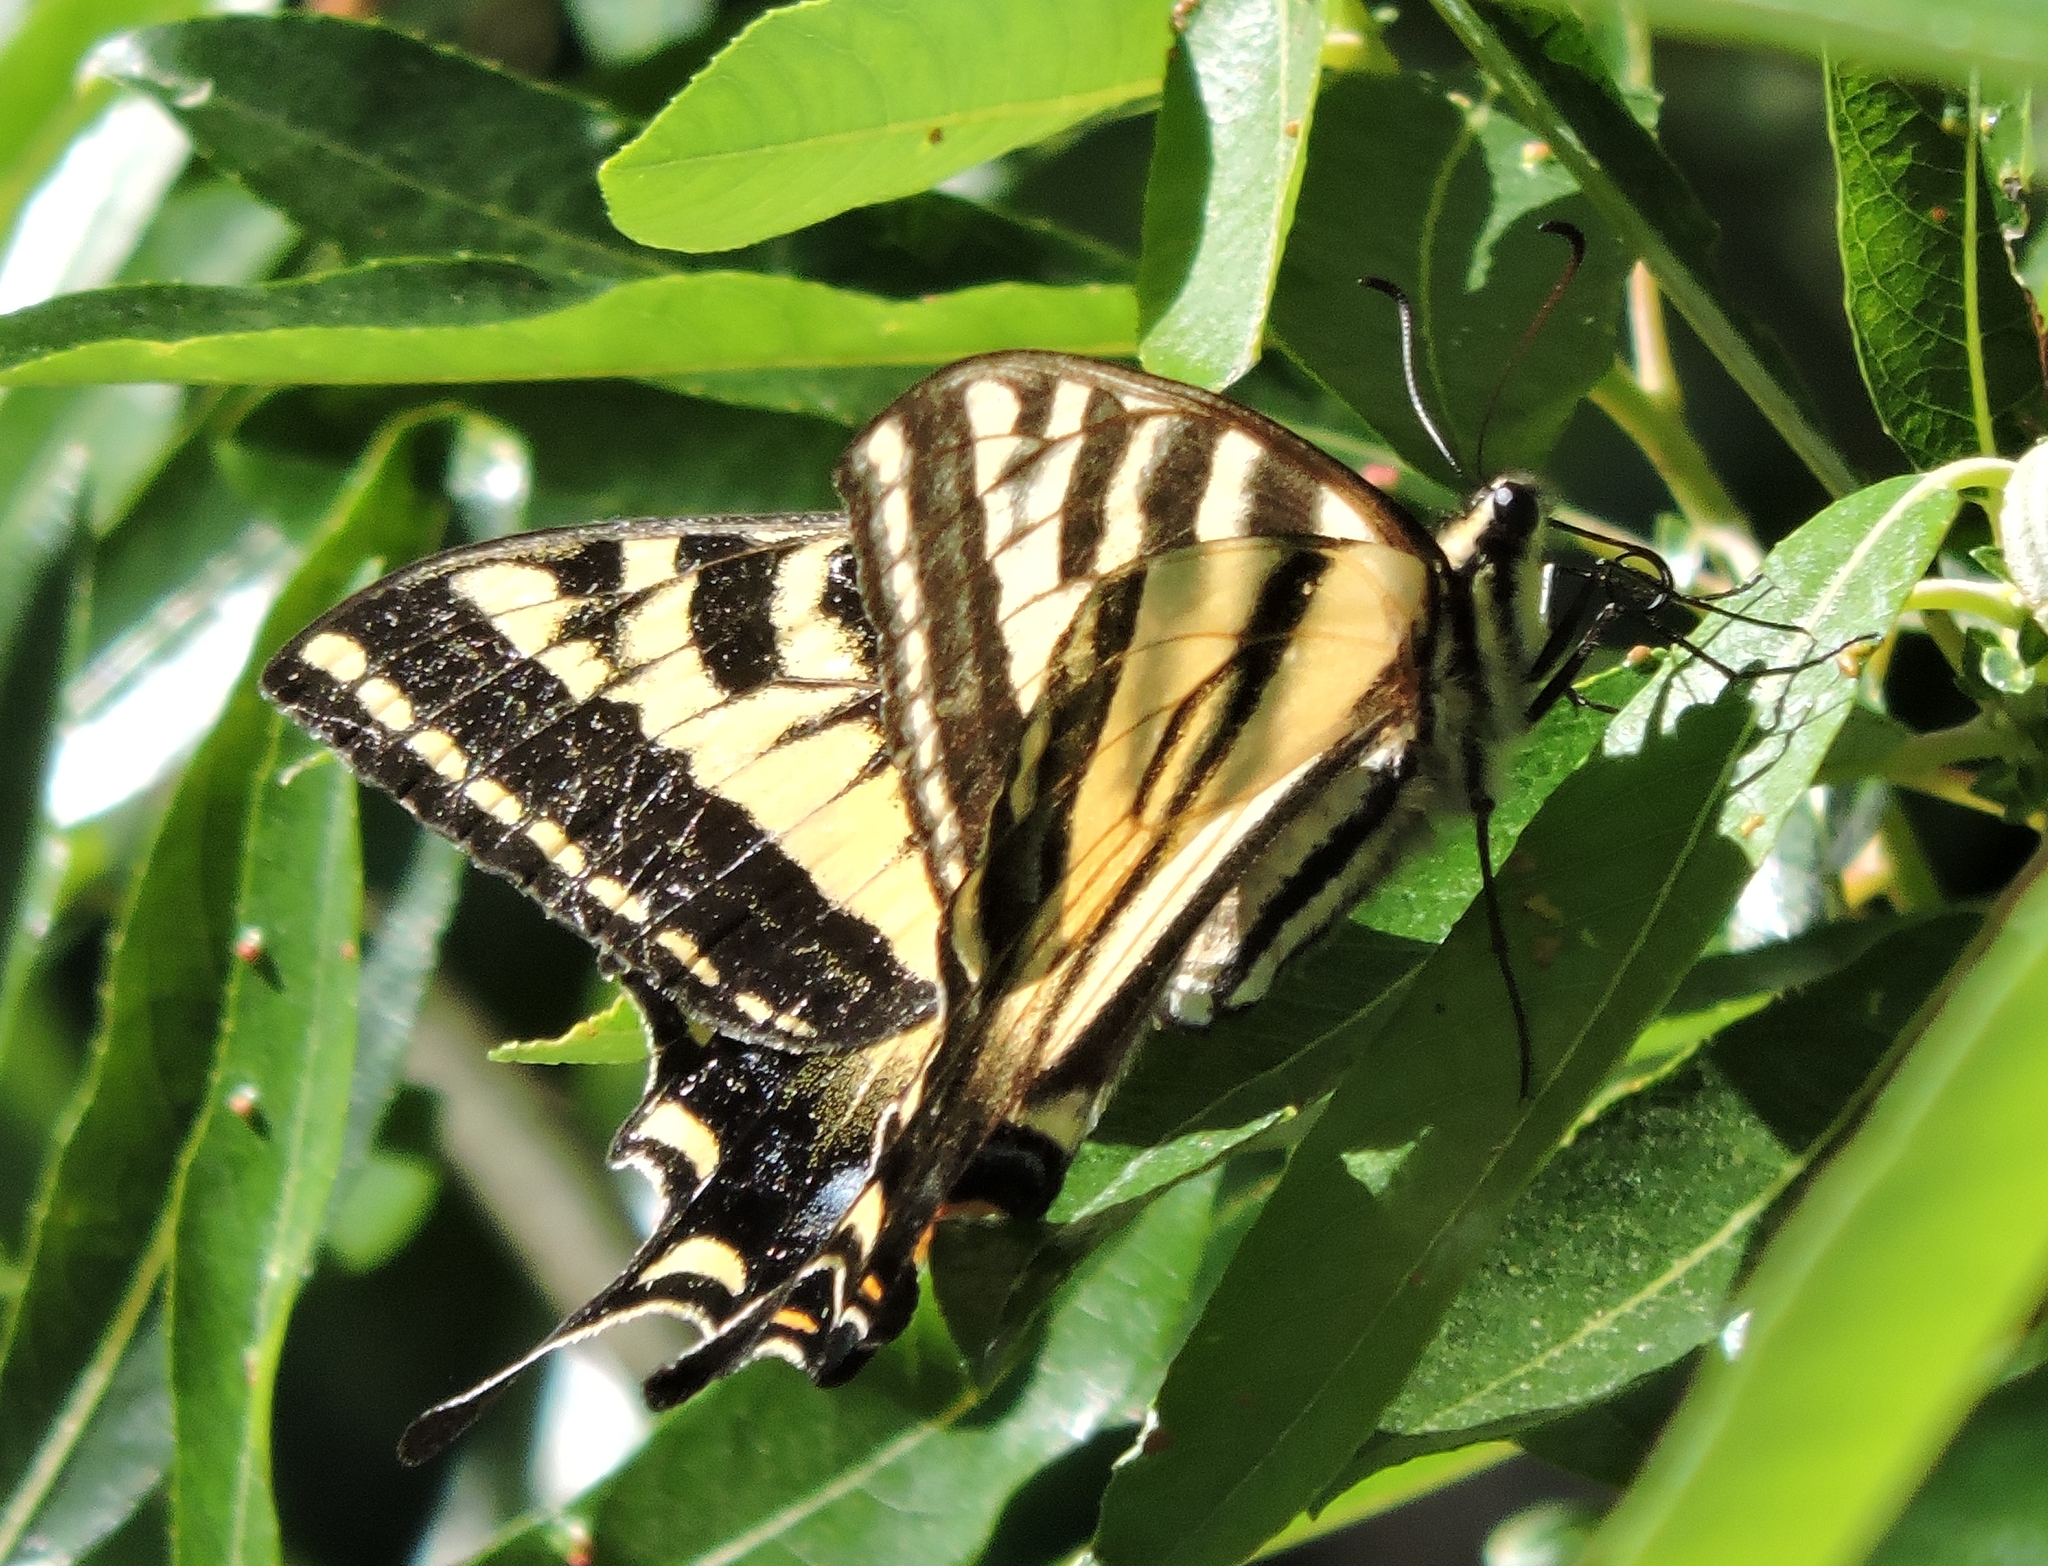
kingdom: Animalia
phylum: Arthropoda
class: Insecta
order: Lepidoptera
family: Papilionidae
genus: Papilio
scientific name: Papilio rutulus
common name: Western tiger swallowtail
